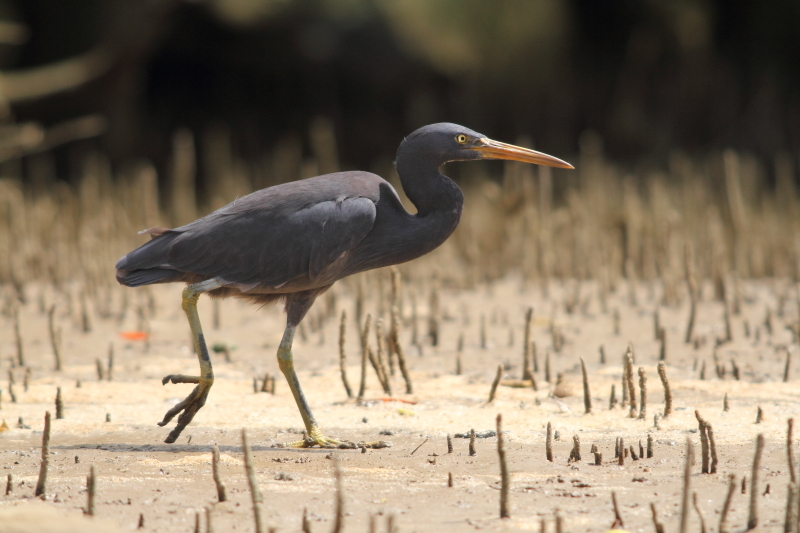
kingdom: Animalia
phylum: Chordata
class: Aves
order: Pelecaniformes
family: Ardeidae
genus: Egretta
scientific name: Egretta sacra
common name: Pacific reef heron
